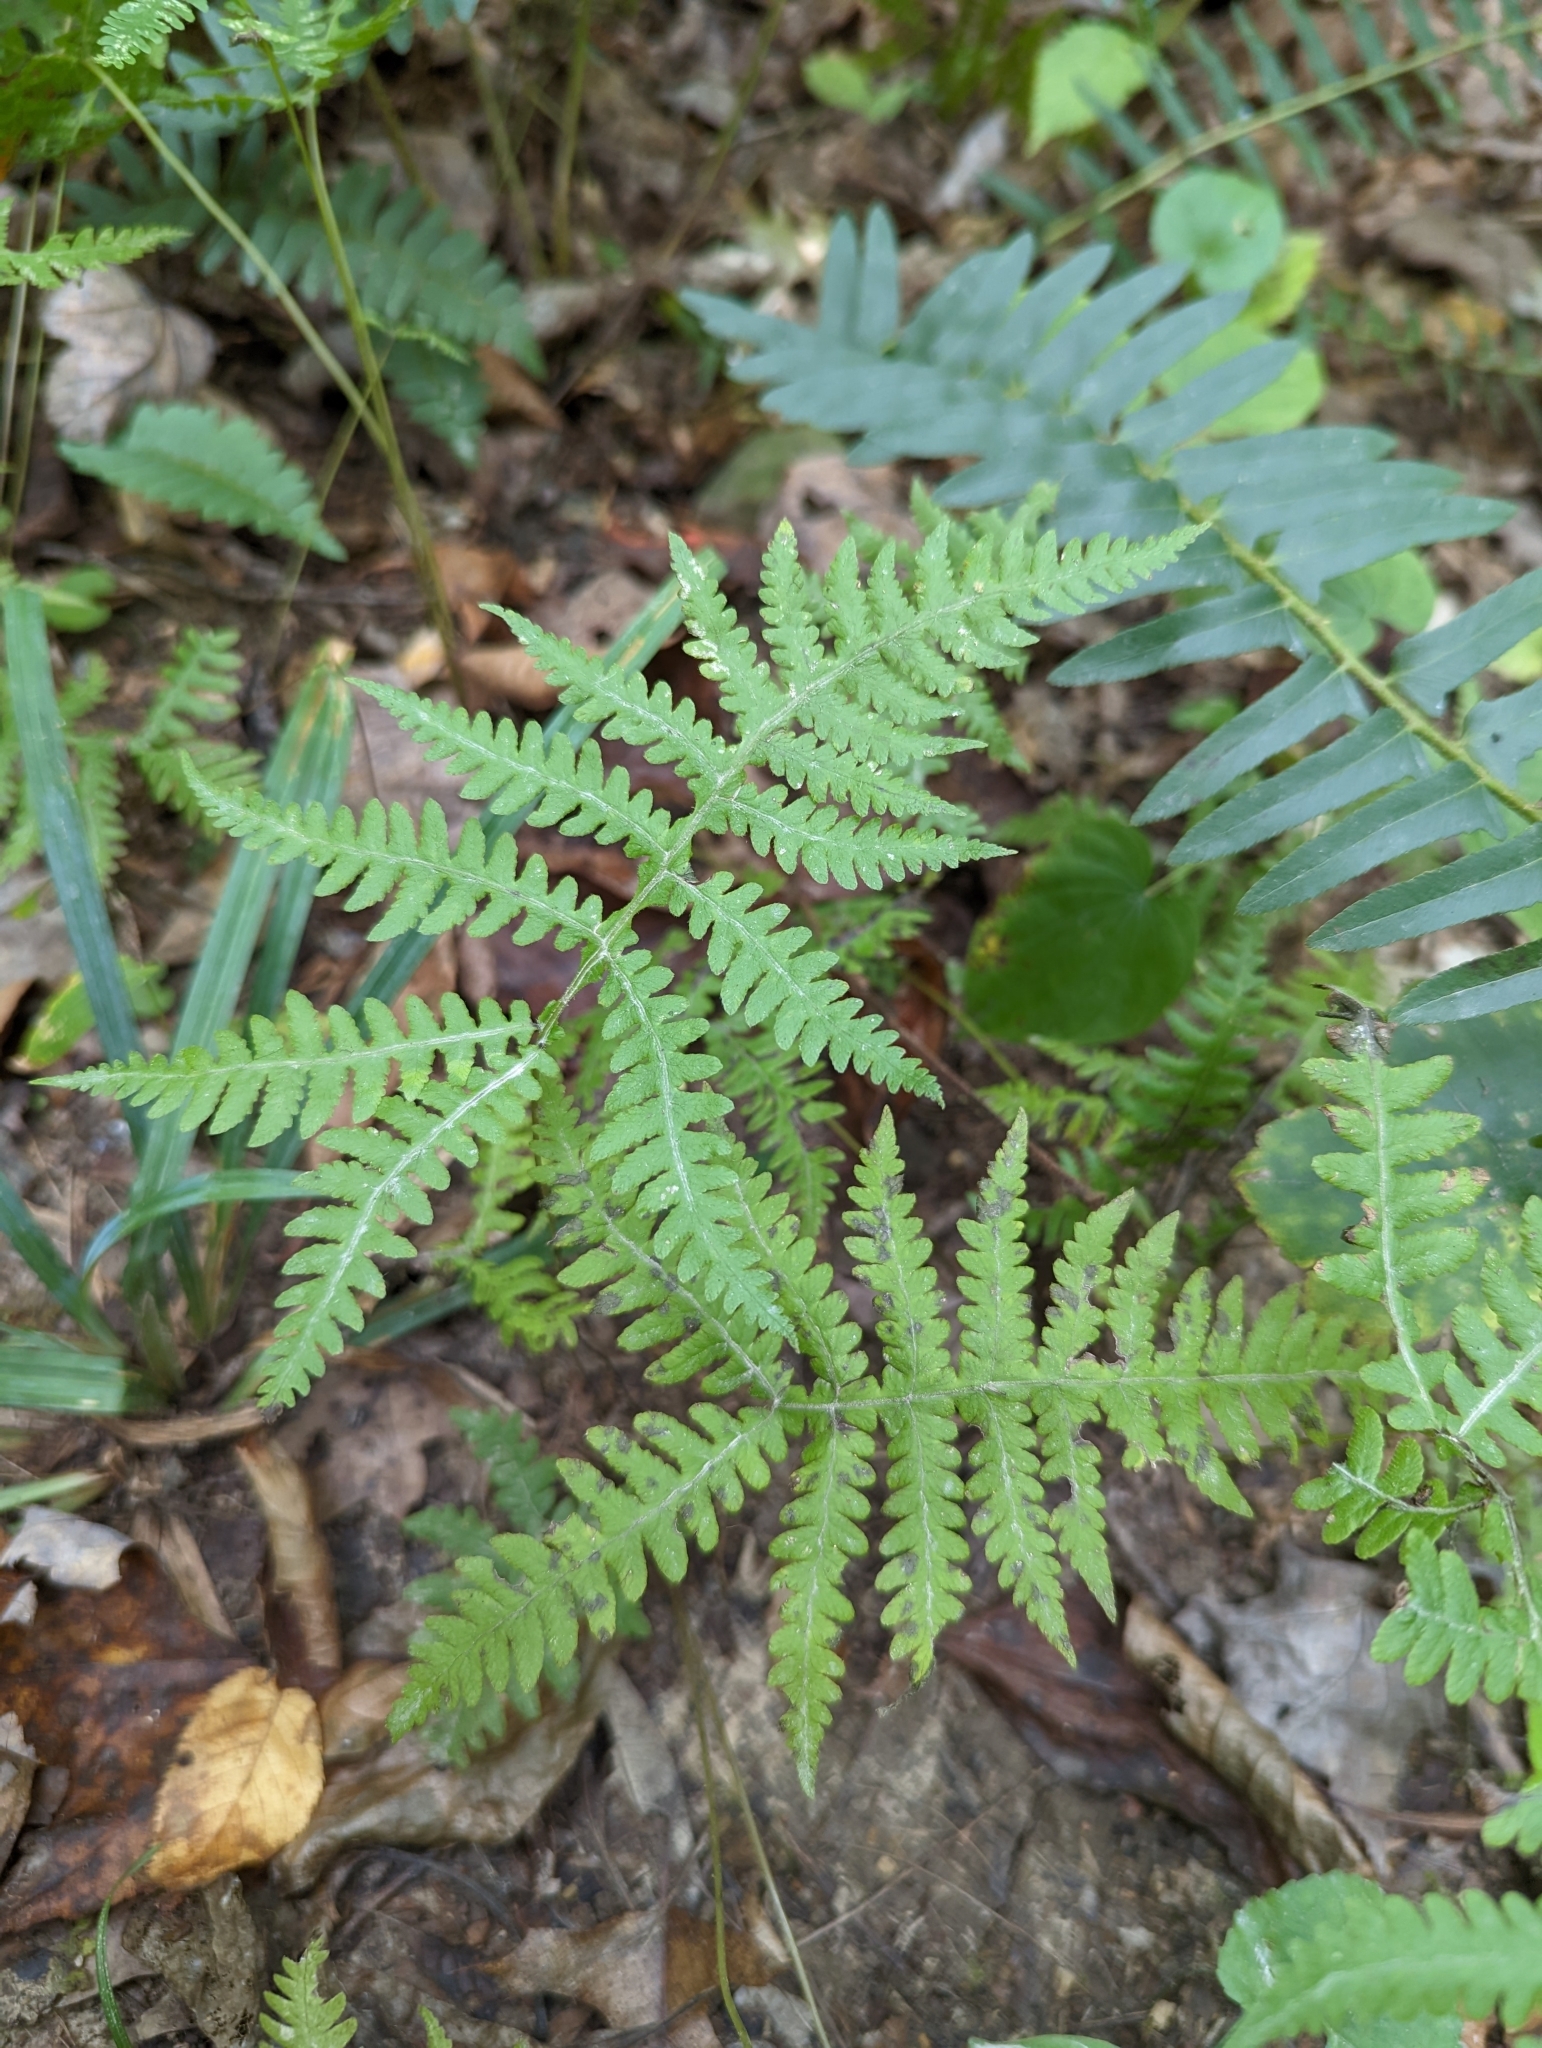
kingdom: Plantae
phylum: Tracheophyta
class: Polypodiopsida
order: Polypodiales
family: Thelypteridaceae
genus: Phegopteris
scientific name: Phegopteris hexagonoptera
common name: Broad beech fern
